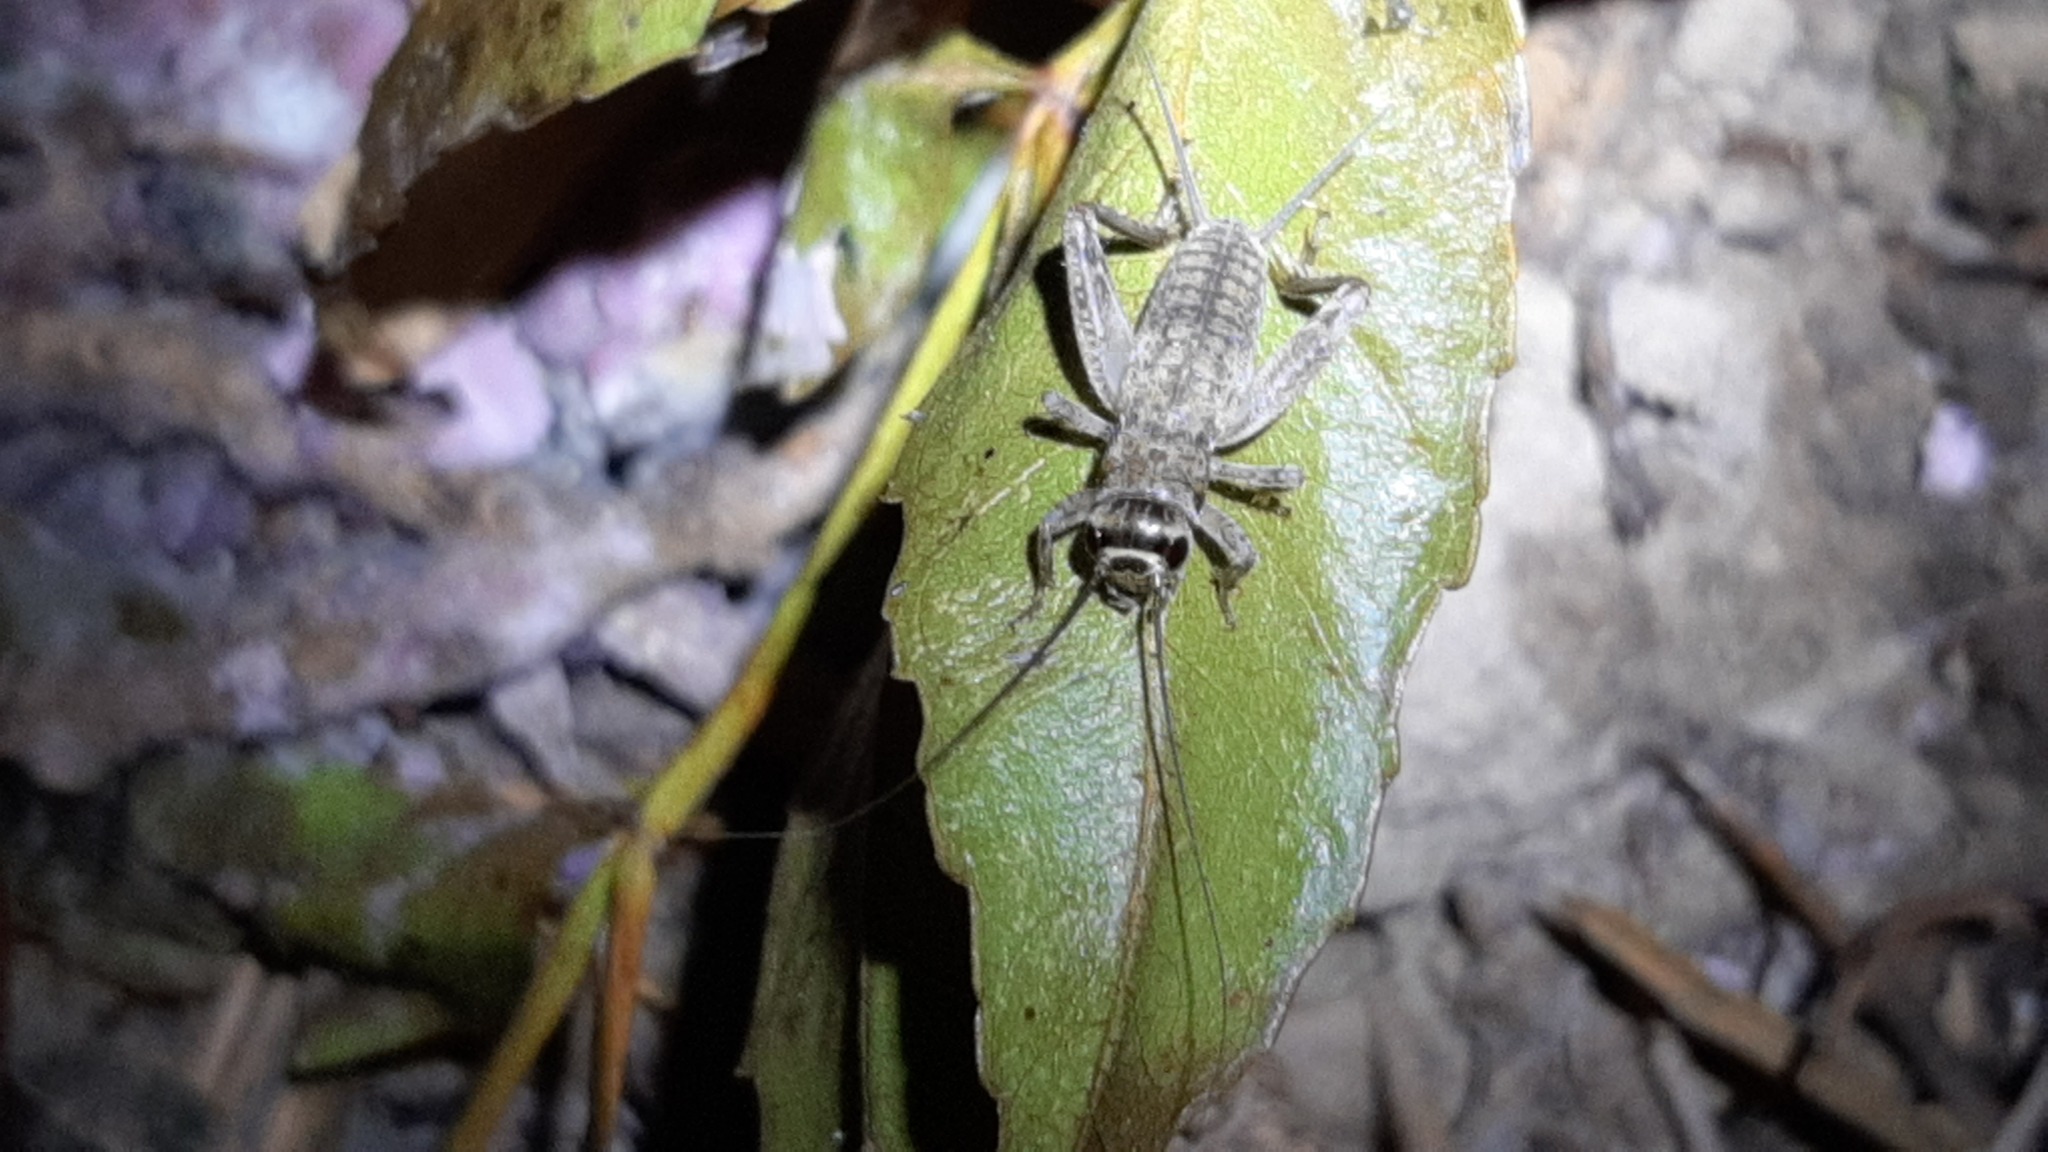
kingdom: Animalia
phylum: Arthropoda
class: Insecta
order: Orthoptera
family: Gryllidae
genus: Eumodicogryllus
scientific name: Eumodicogryllus bordigalensis
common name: Bordeaux cricket
